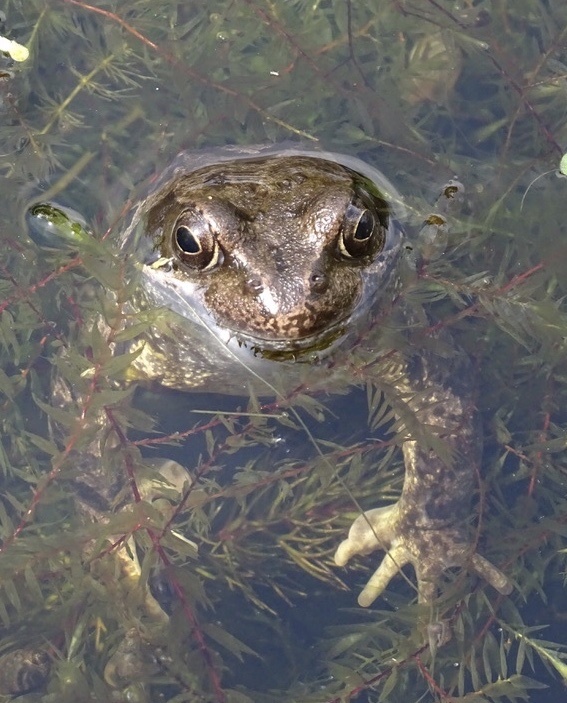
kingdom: Animalia
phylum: Chordata
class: Amphibia
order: Anura
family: Ranidae
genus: Rana
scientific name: Rana temporaria
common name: Common frog
